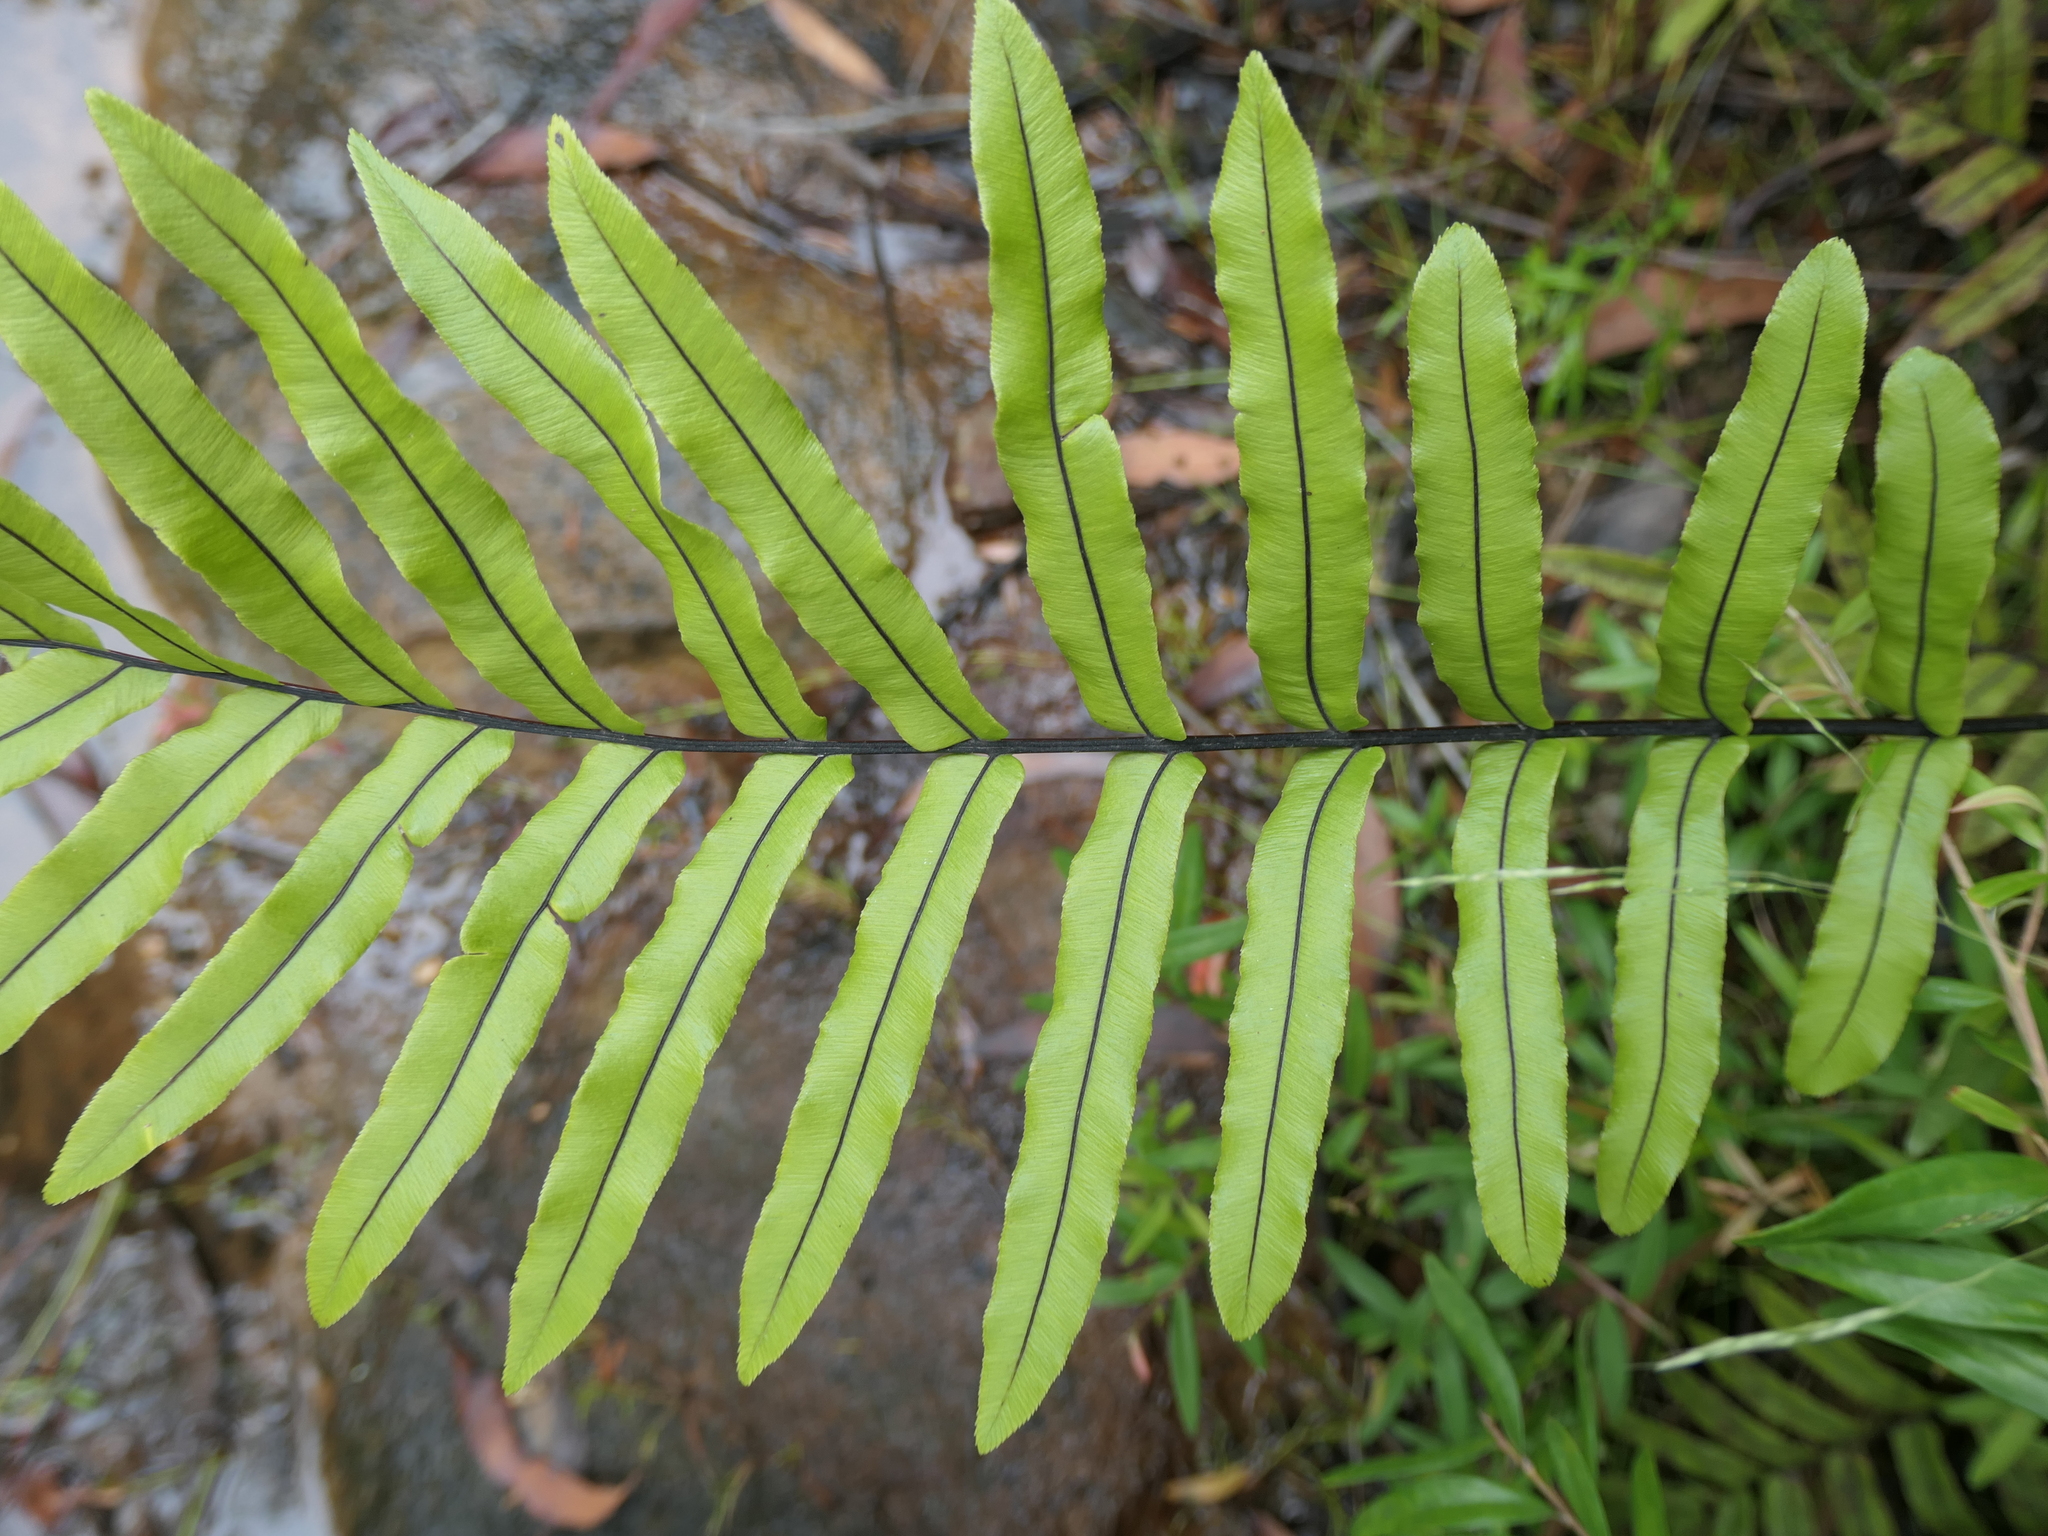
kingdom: Plantae
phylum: Tracheophyta
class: Polypodiopsida
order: Polypodiales
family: Blechnaceae
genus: Parablechnum
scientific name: Parablechnum minus
